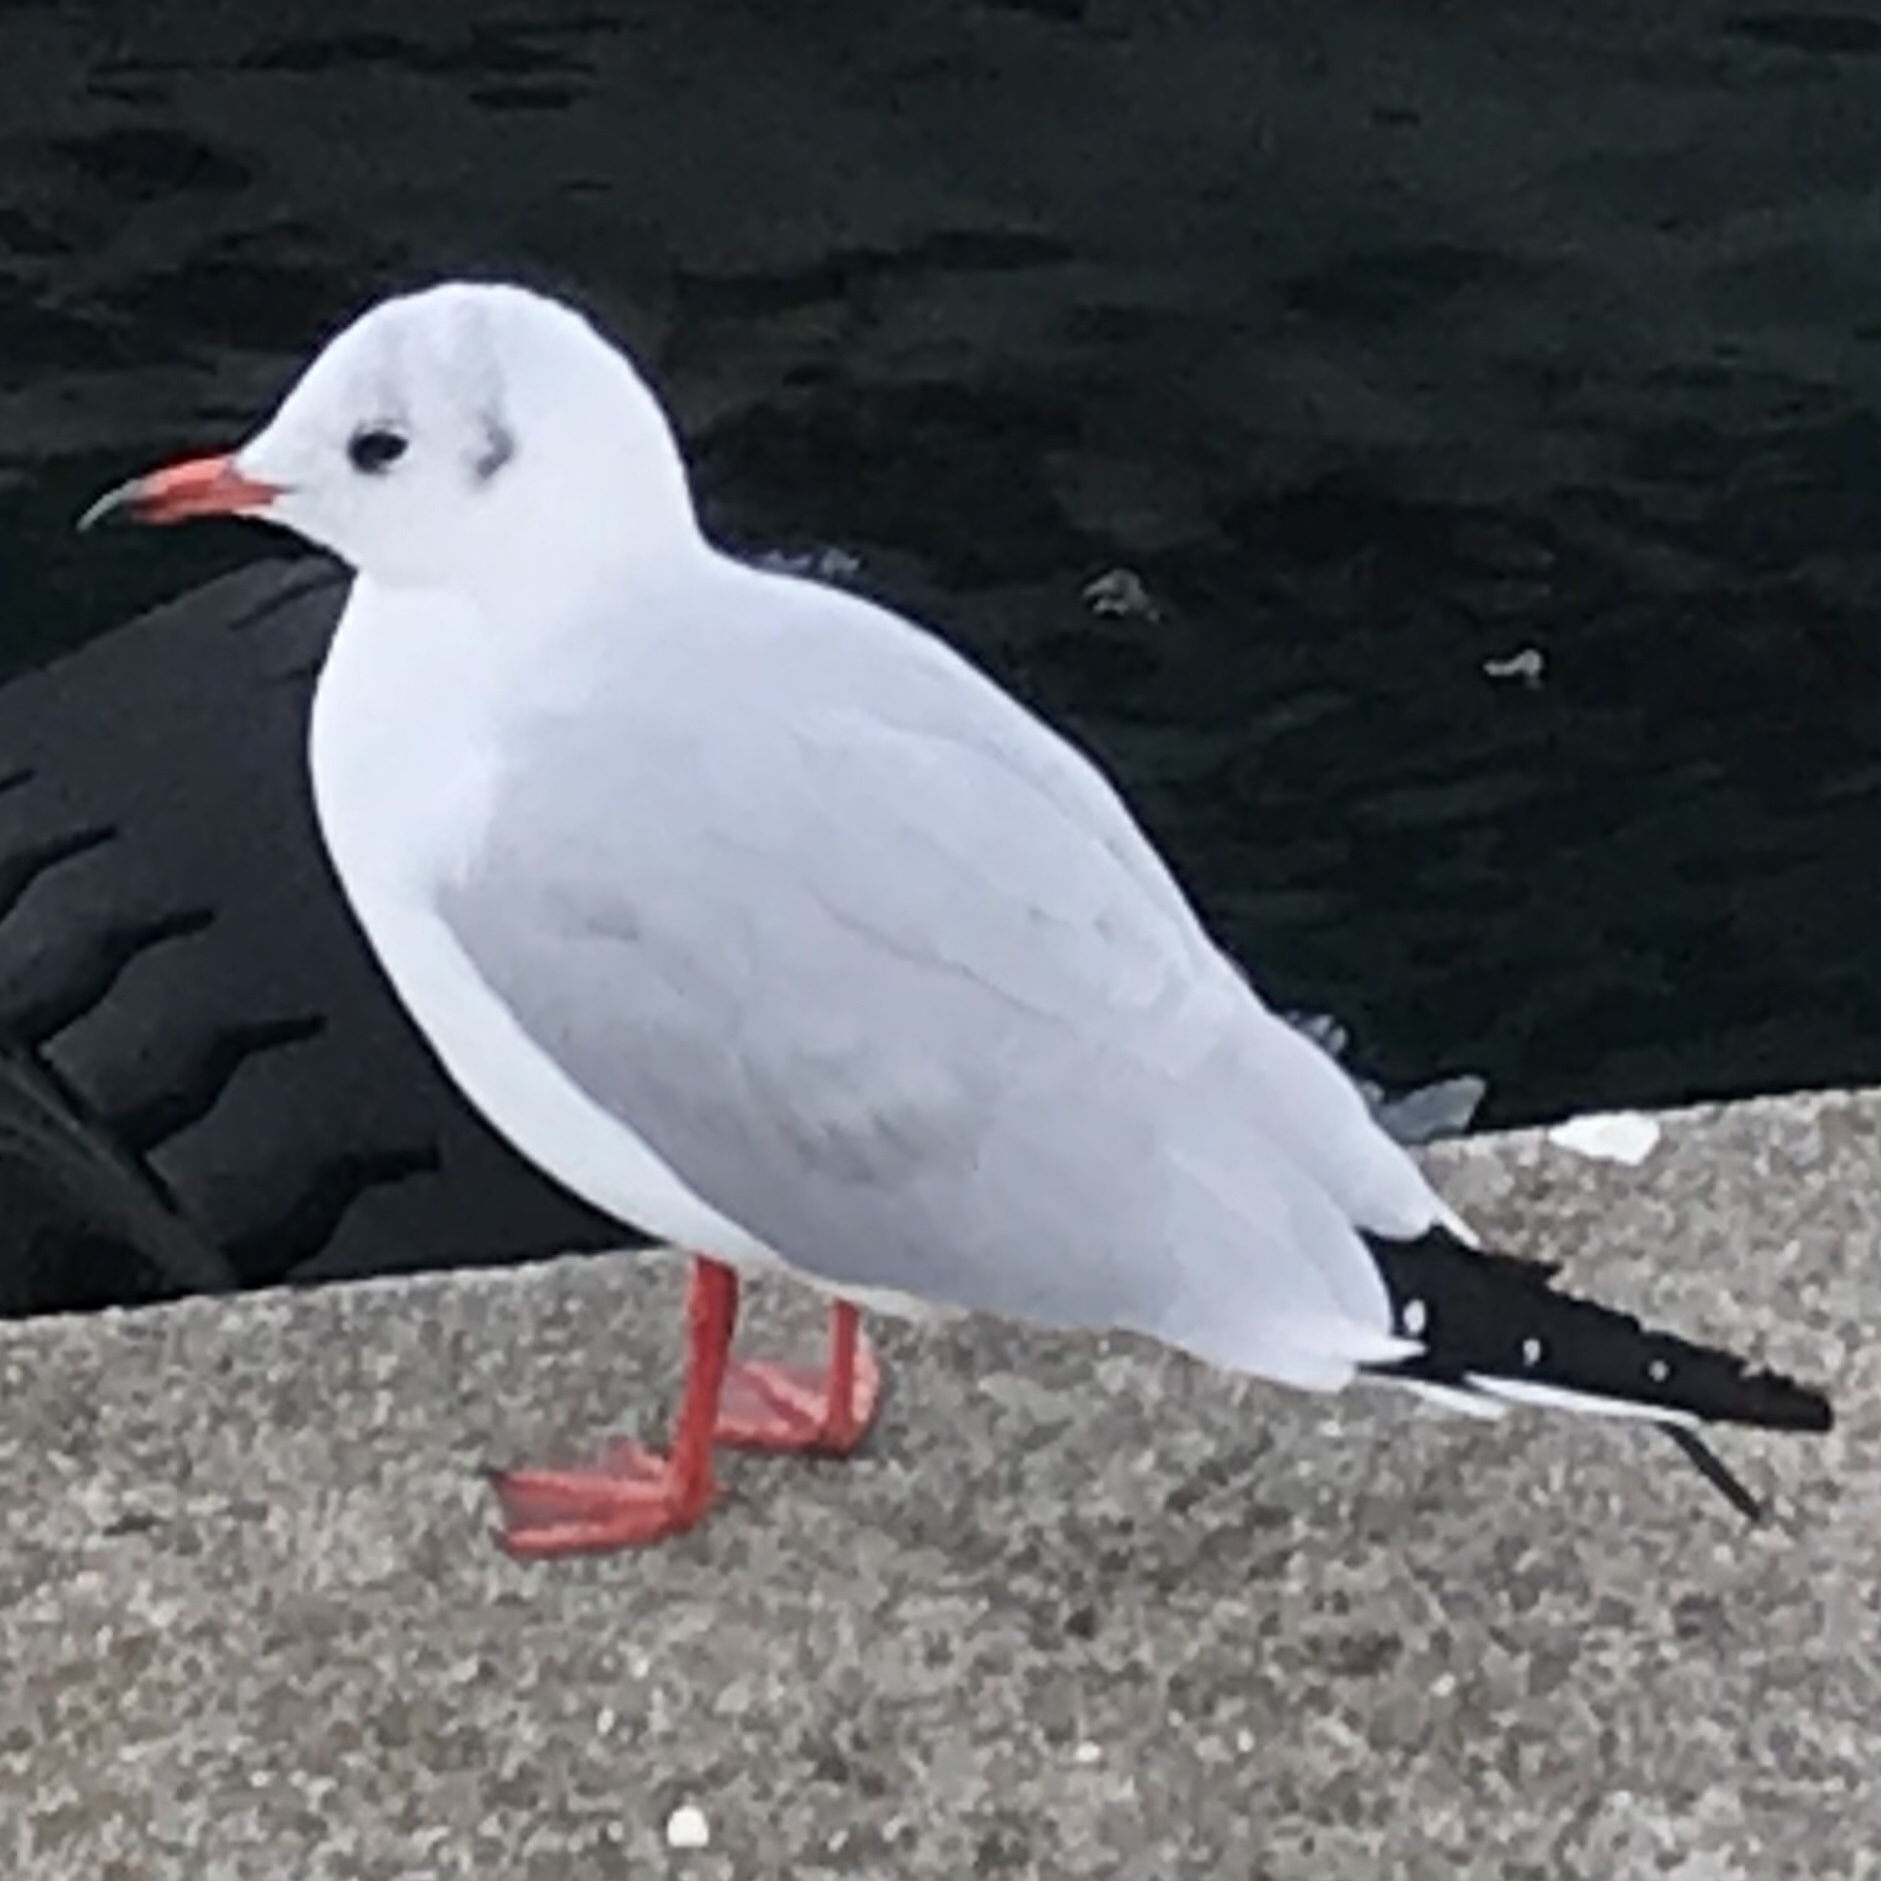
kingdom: Animalia
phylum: Chordata
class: Aves
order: Charadriiformes
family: Laridae
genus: Chroicocephalus
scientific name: Chroicocephalus ridibundus
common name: Black-headed gull
